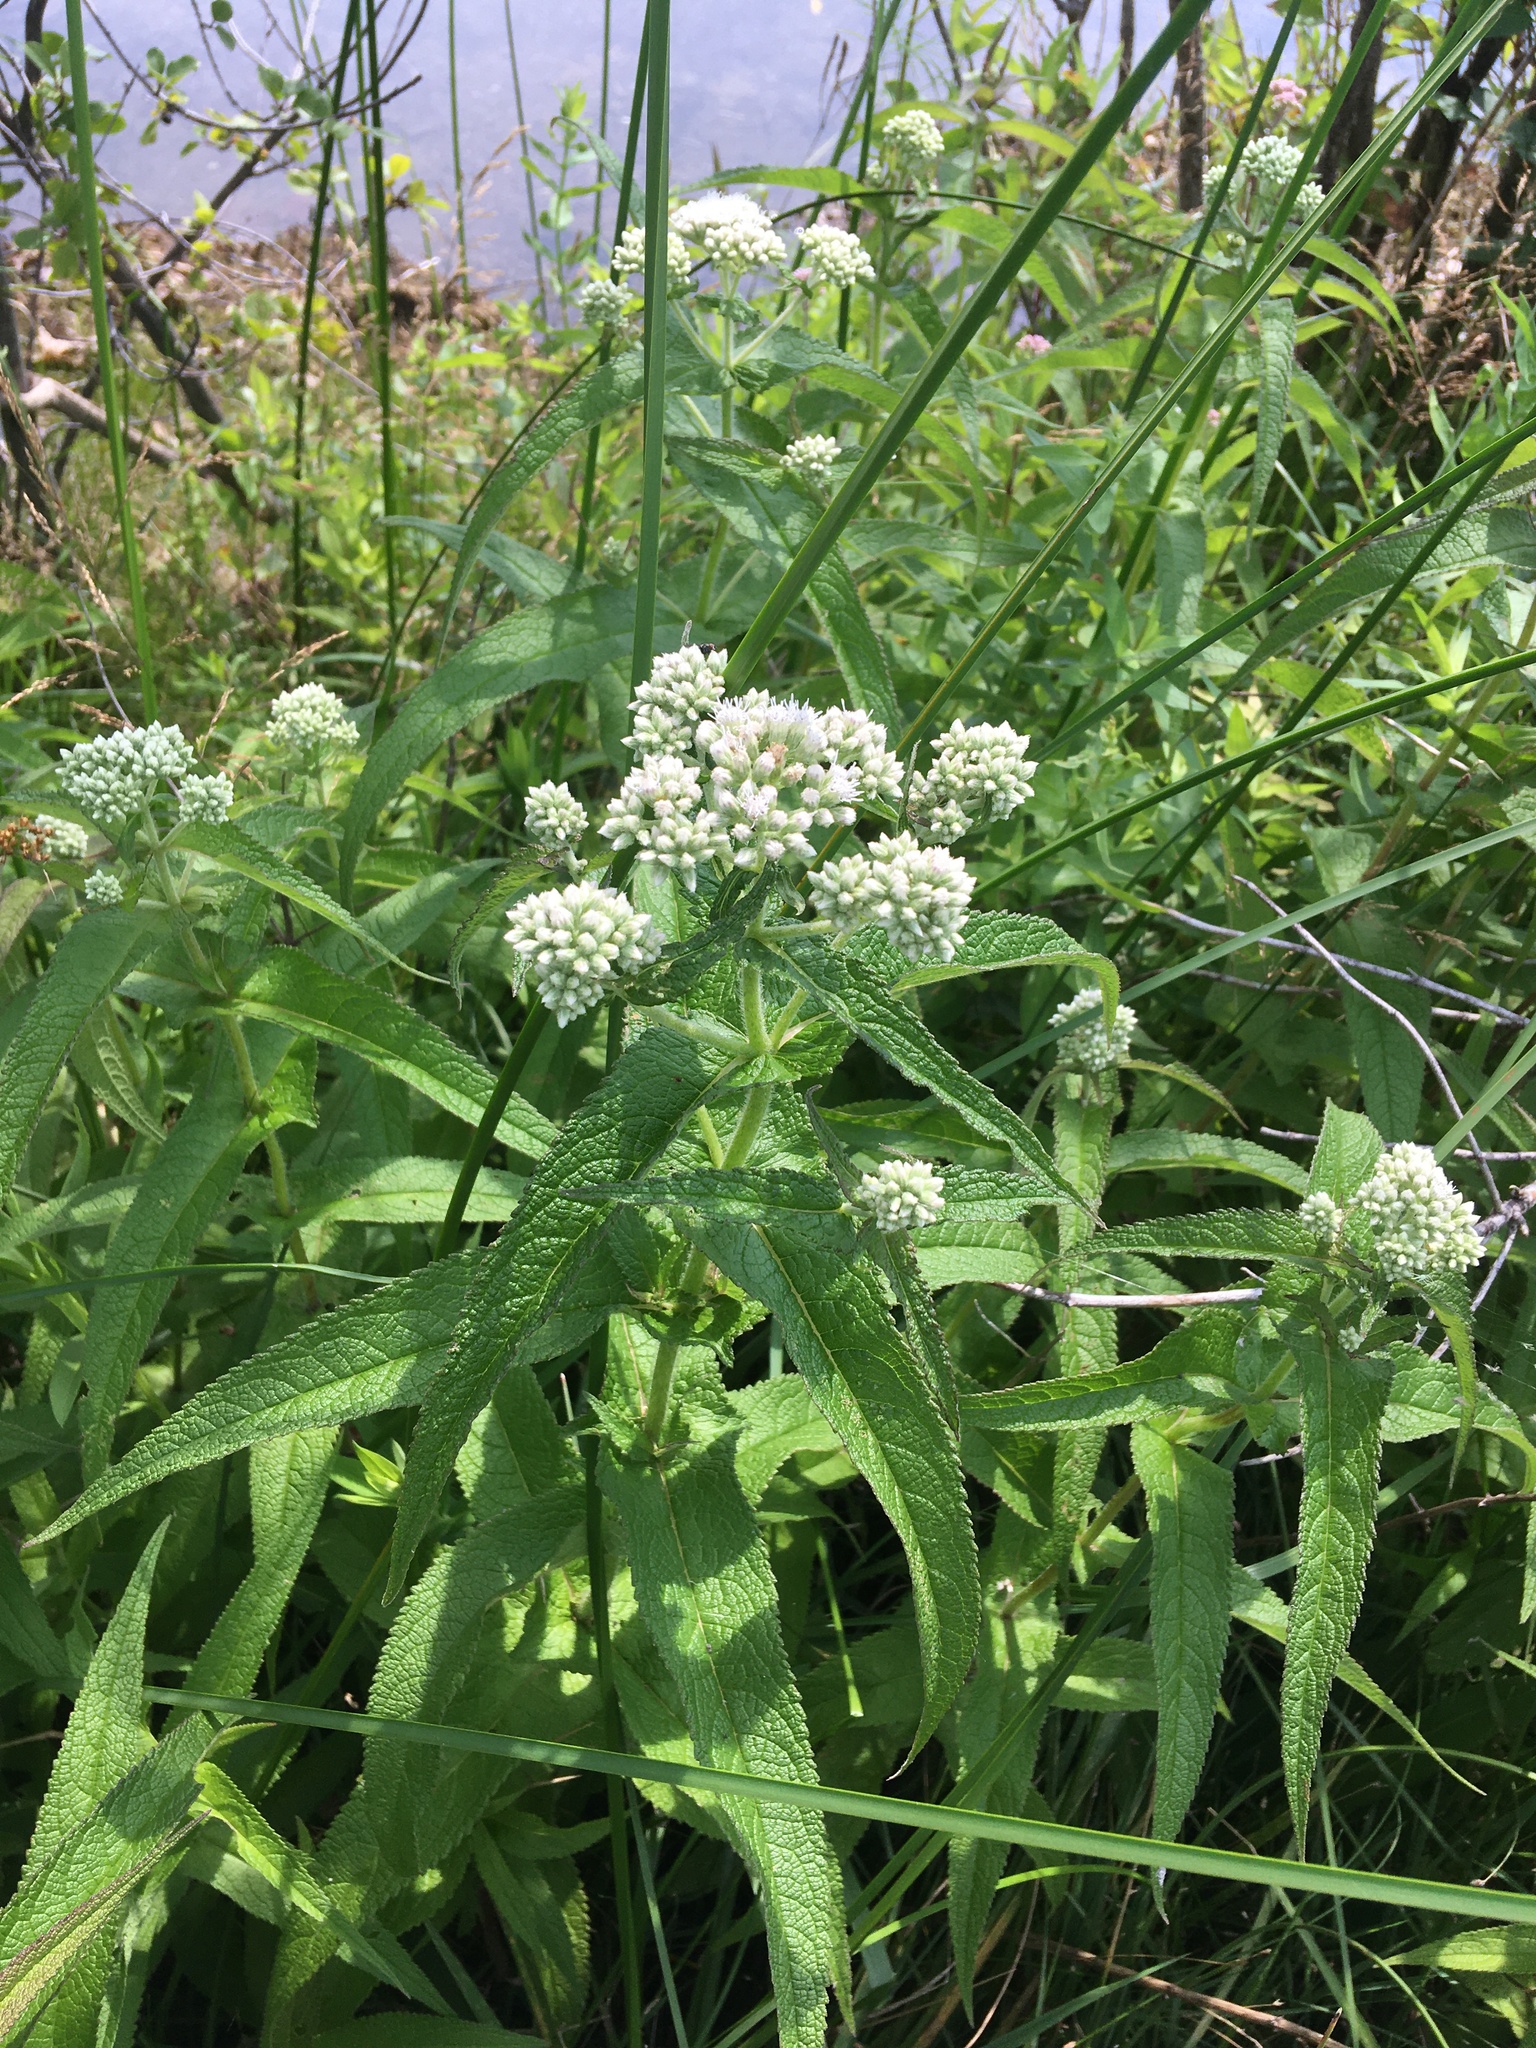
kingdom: Plantae
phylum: Tracheophyta
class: Magnoliopsida
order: Asterales
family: Asteraceae
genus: Eupatorium
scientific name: Eupatorium perfoliatum
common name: Boneset
